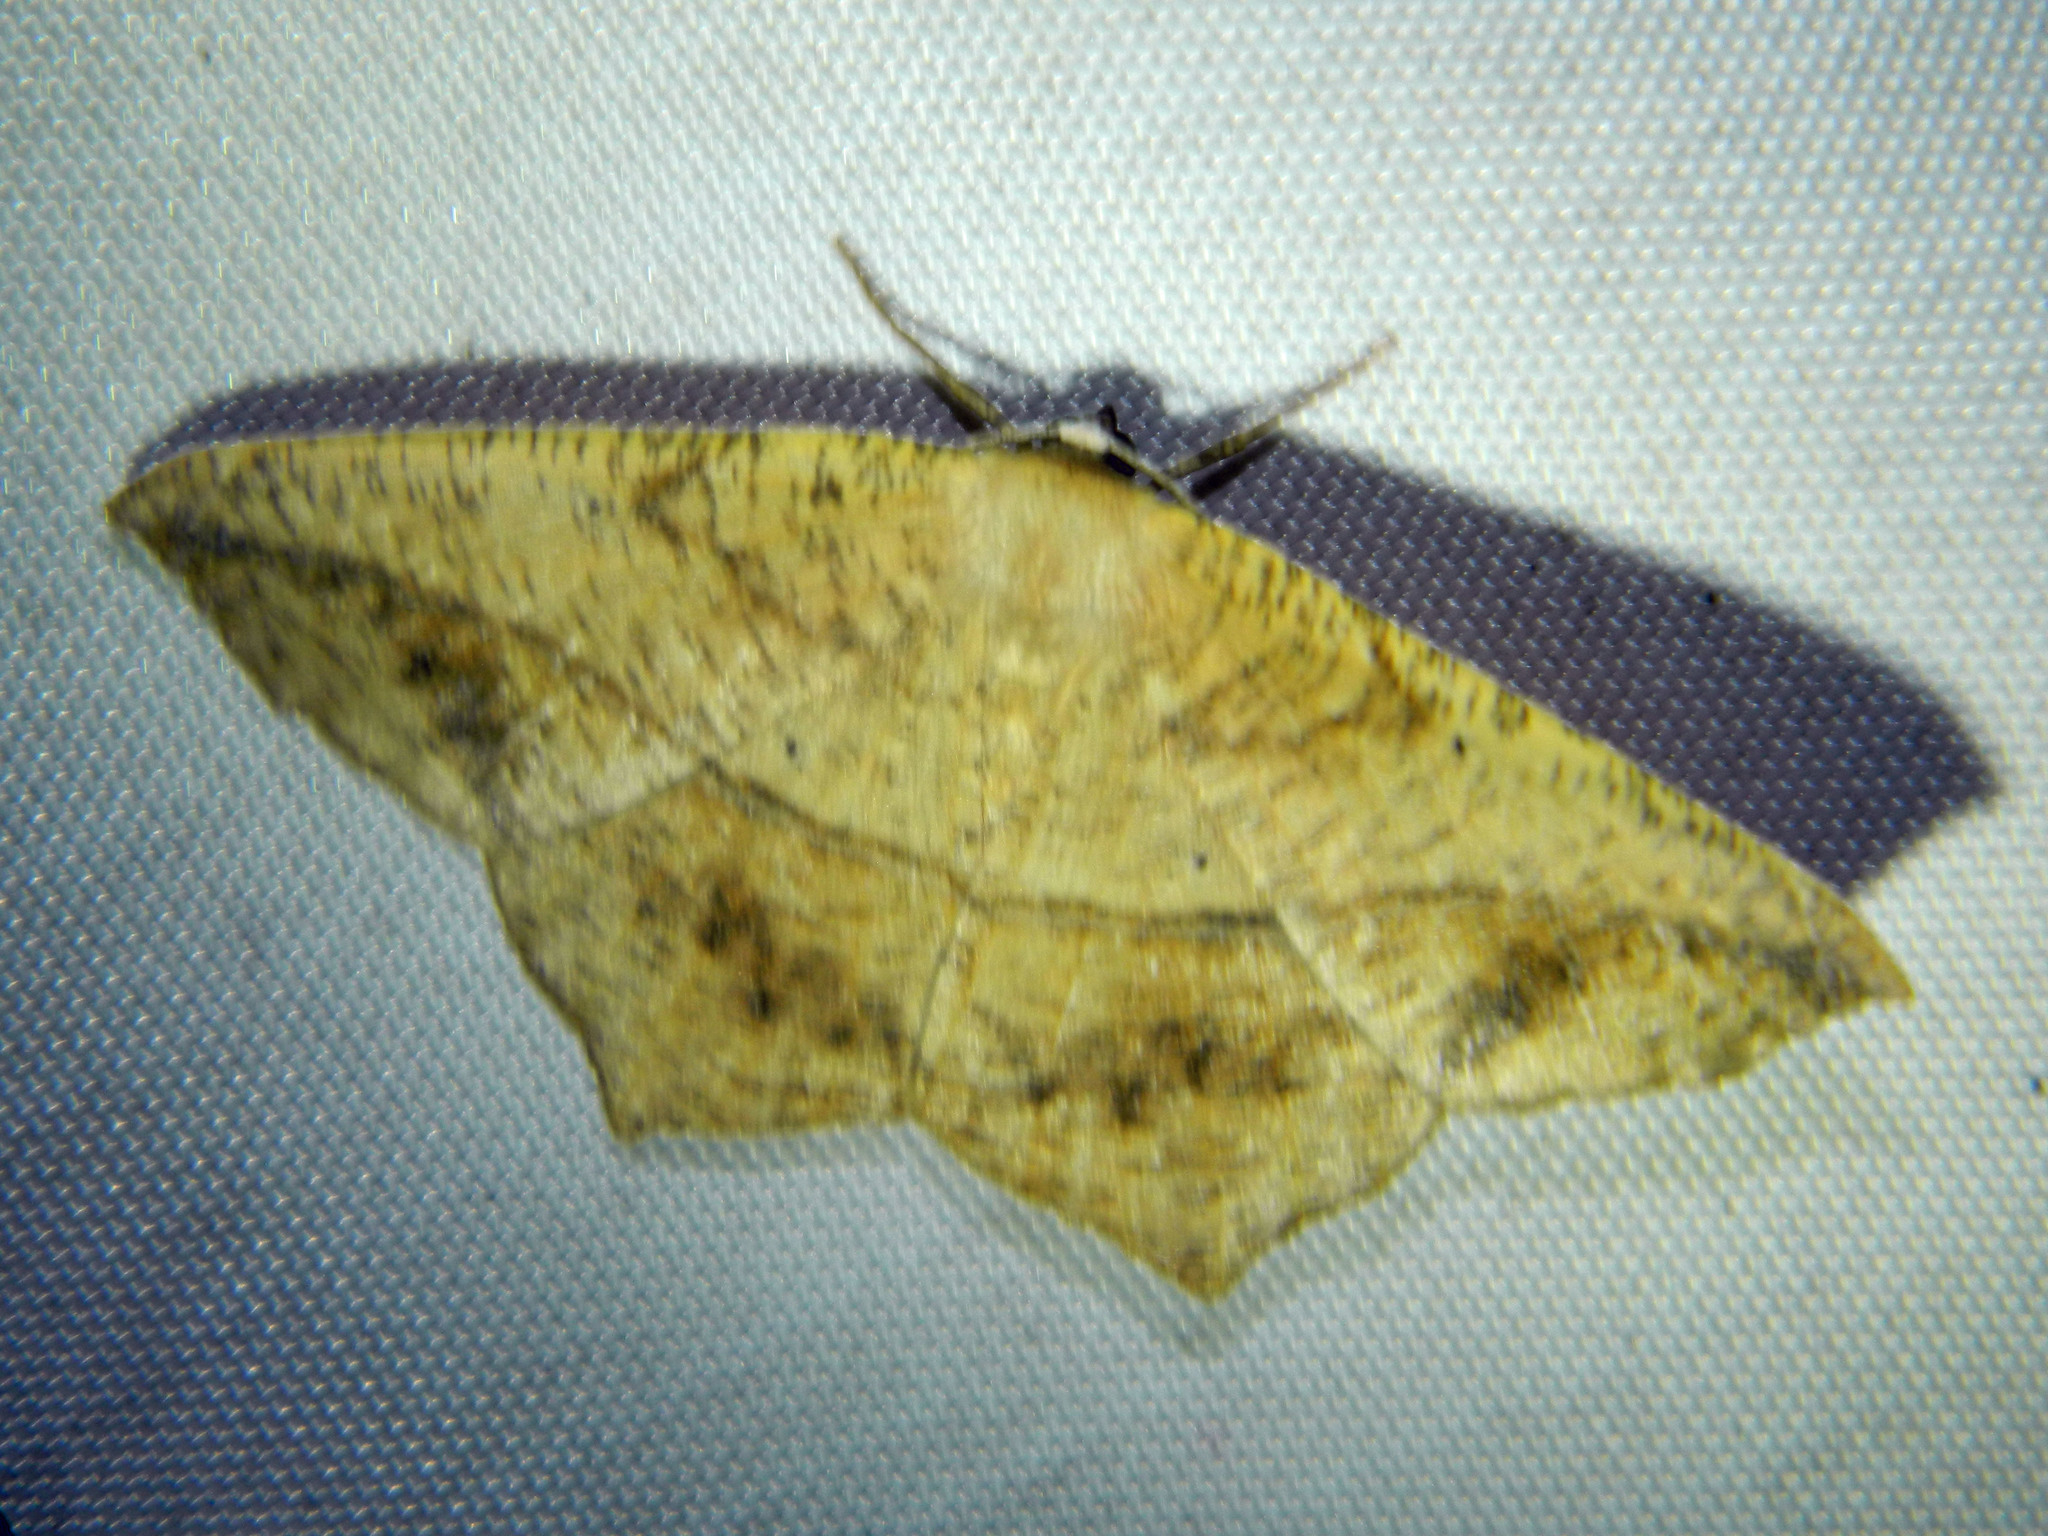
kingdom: Animalia
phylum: Arthropoda
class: Insecta
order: Lepidoptera
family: Geometridae
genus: Prochoerodes
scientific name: Prochoerodes lineola
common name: Large maple spanworm
